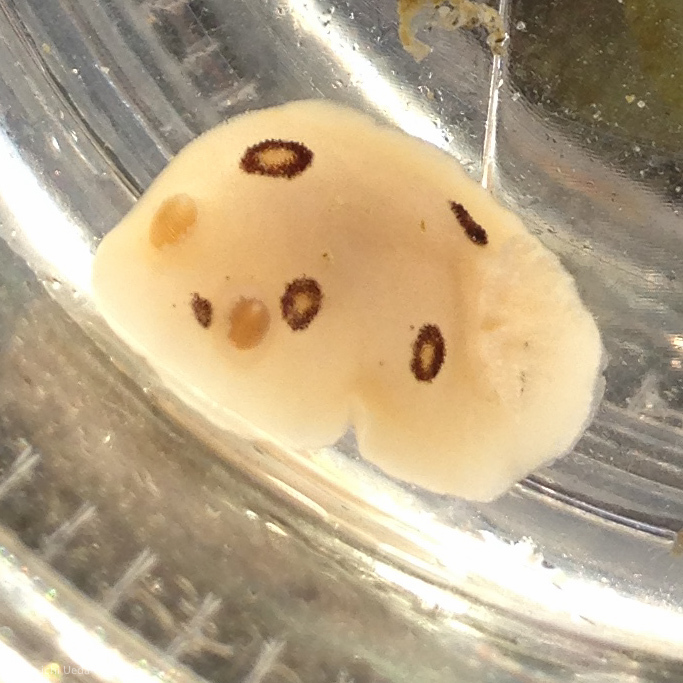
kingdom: Animalia
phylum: Mollusca
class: Gastropoda
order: Nudibranchia
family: Discodorididae
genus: Diaulula
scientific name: Diaulula sandiegensis
